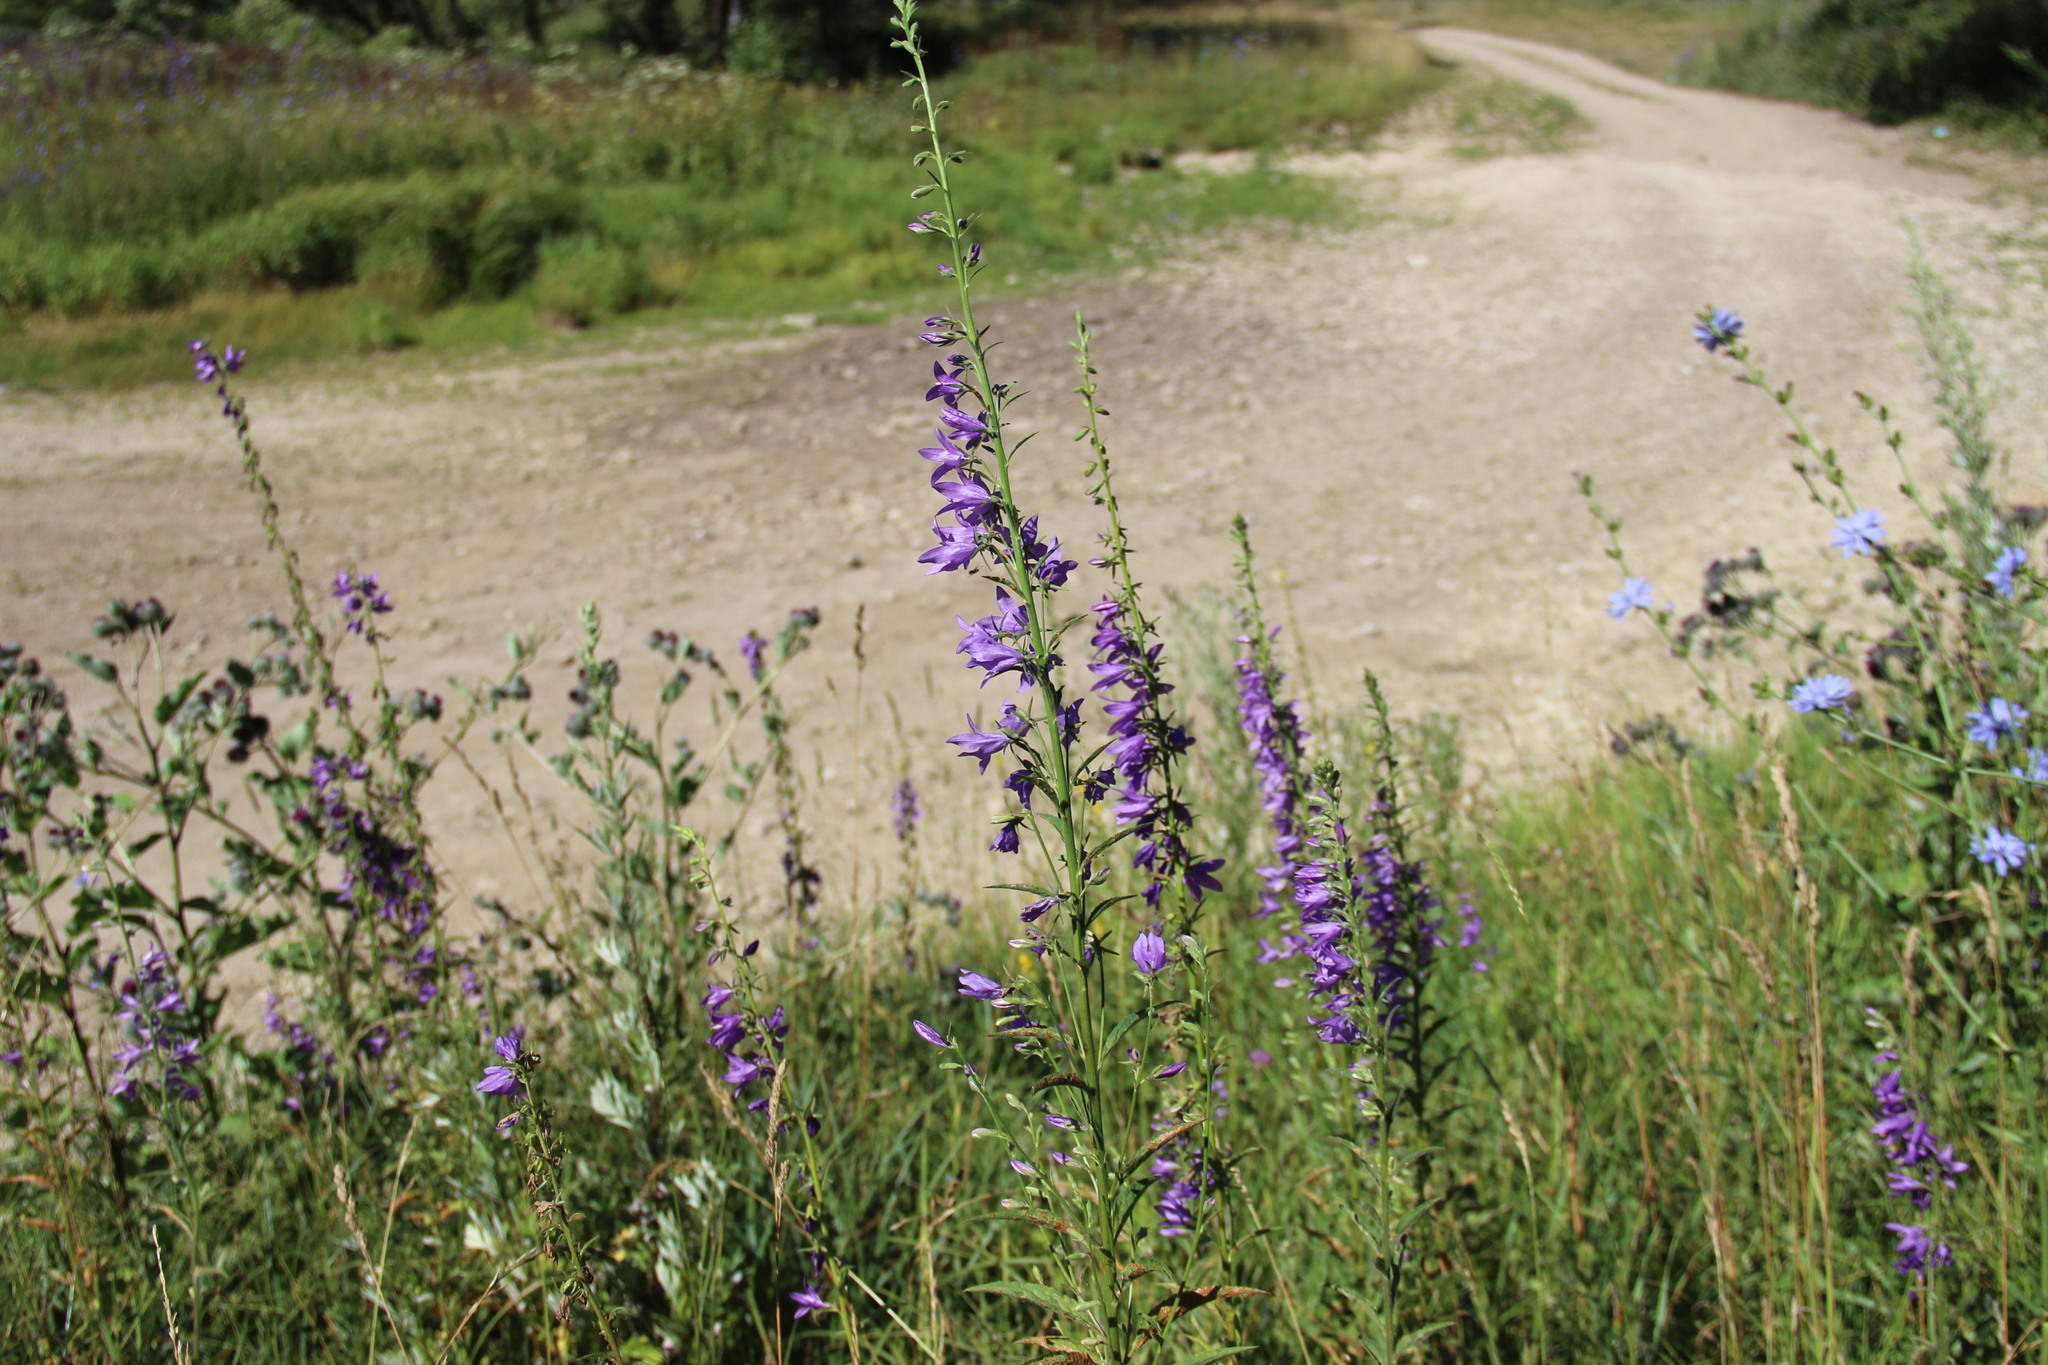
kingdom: Plantae
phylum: Tracheophyta
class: Magnoliopsida
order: Asterales
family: Campanulaceae
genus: Campanula
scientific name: Campanula rapunculoides
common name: Creeping bellflower
